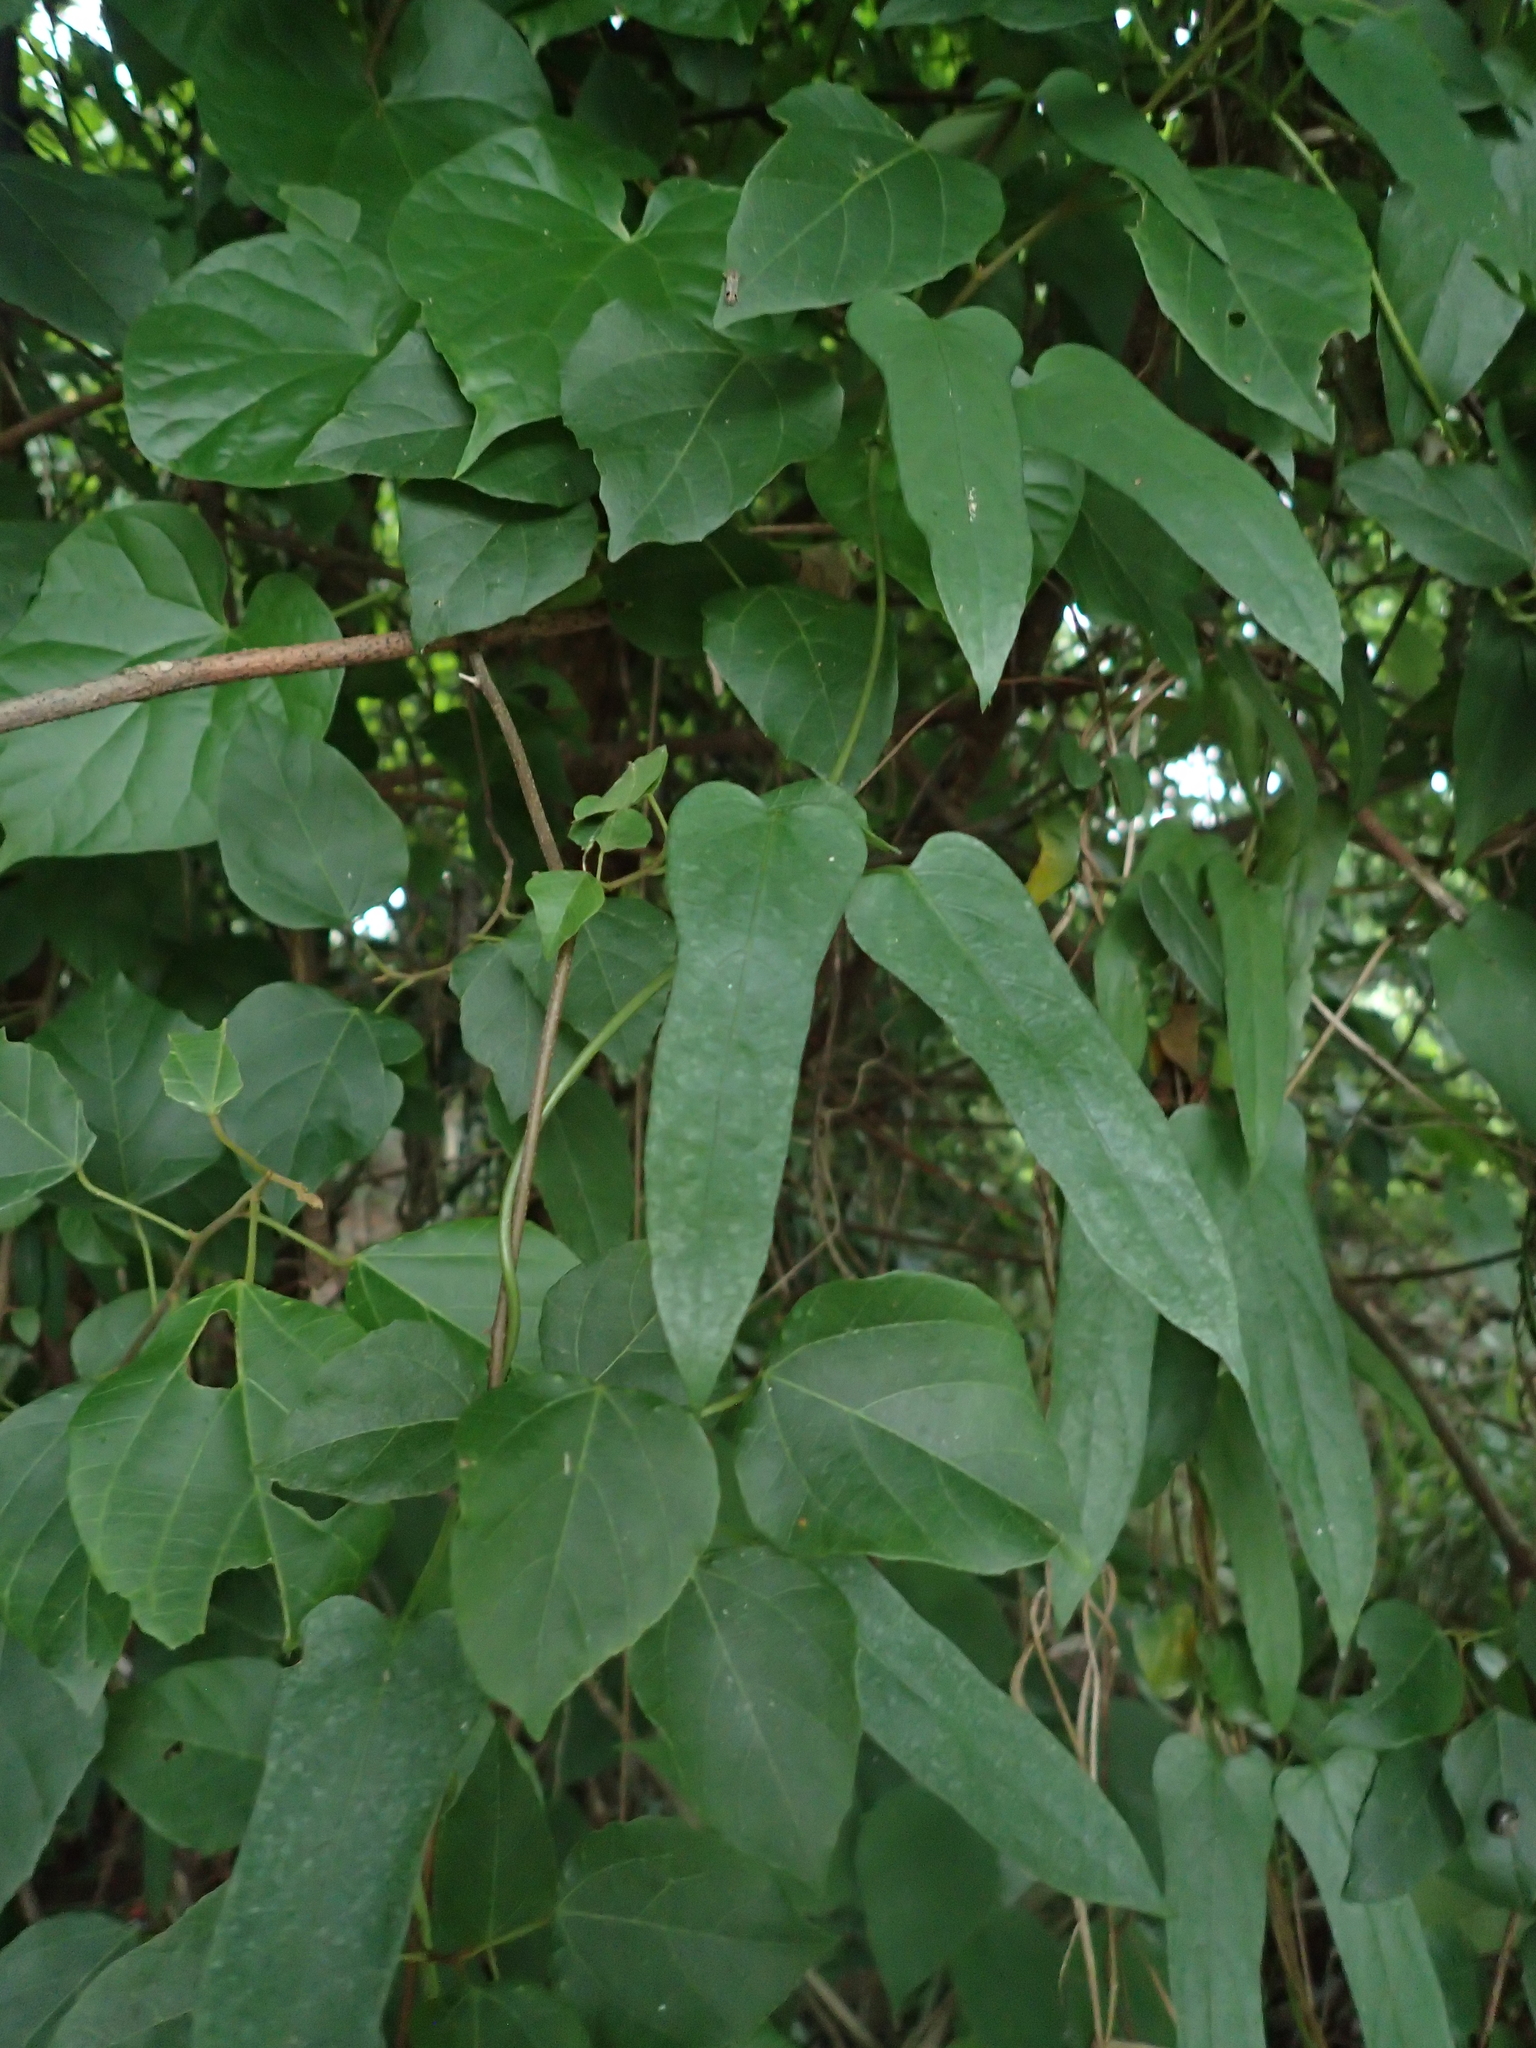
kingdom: Plantae
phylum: Tracheophyta
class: Magnoliopsida
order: Gentianales
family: Rubiaceae
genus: Paederia
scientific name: Paederia foetida
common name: Stinkvine
